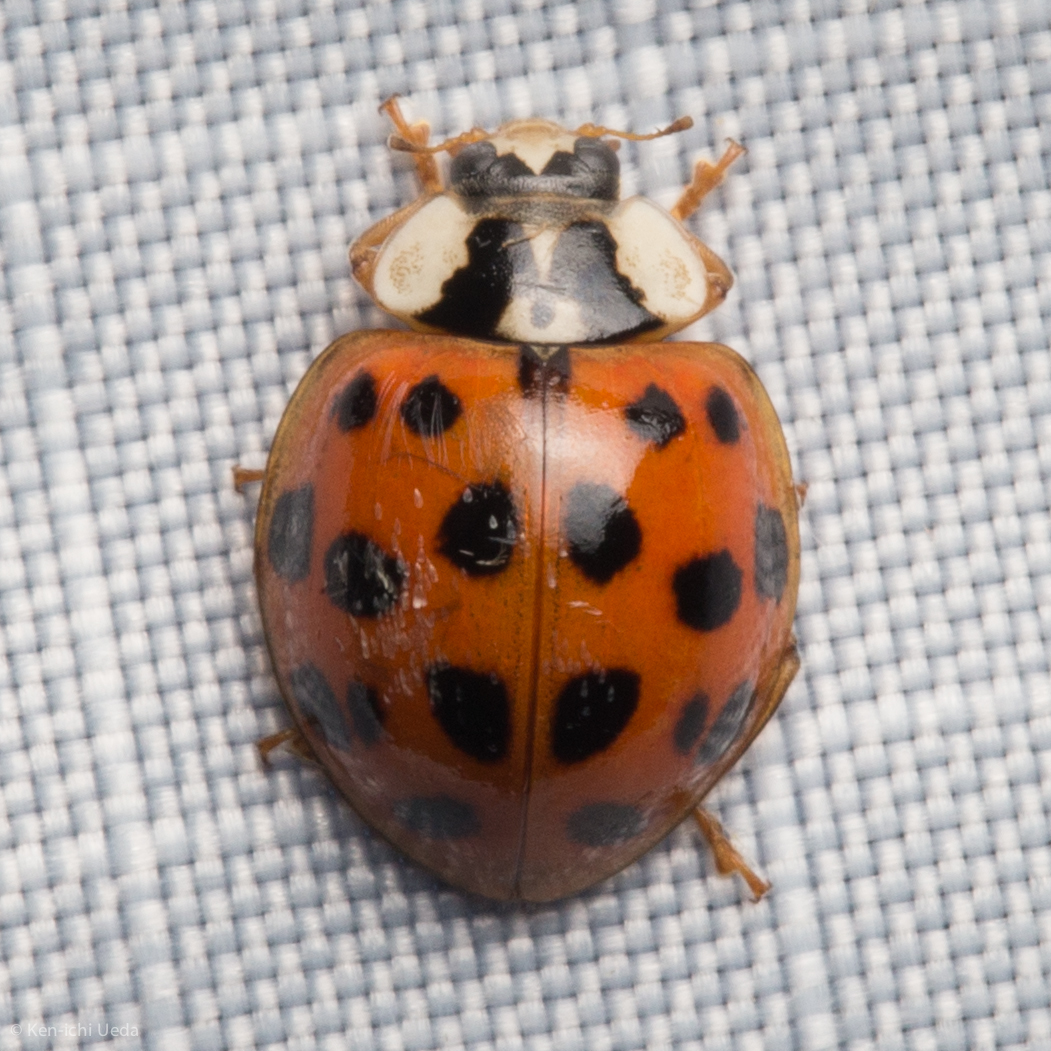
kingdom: Animalia
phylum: Arthropoda
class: Insecta
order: Coleoptera
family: Coccinellidae
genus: Harmonia
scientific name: Harmonia axyridis
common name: Harlequin ladybird
